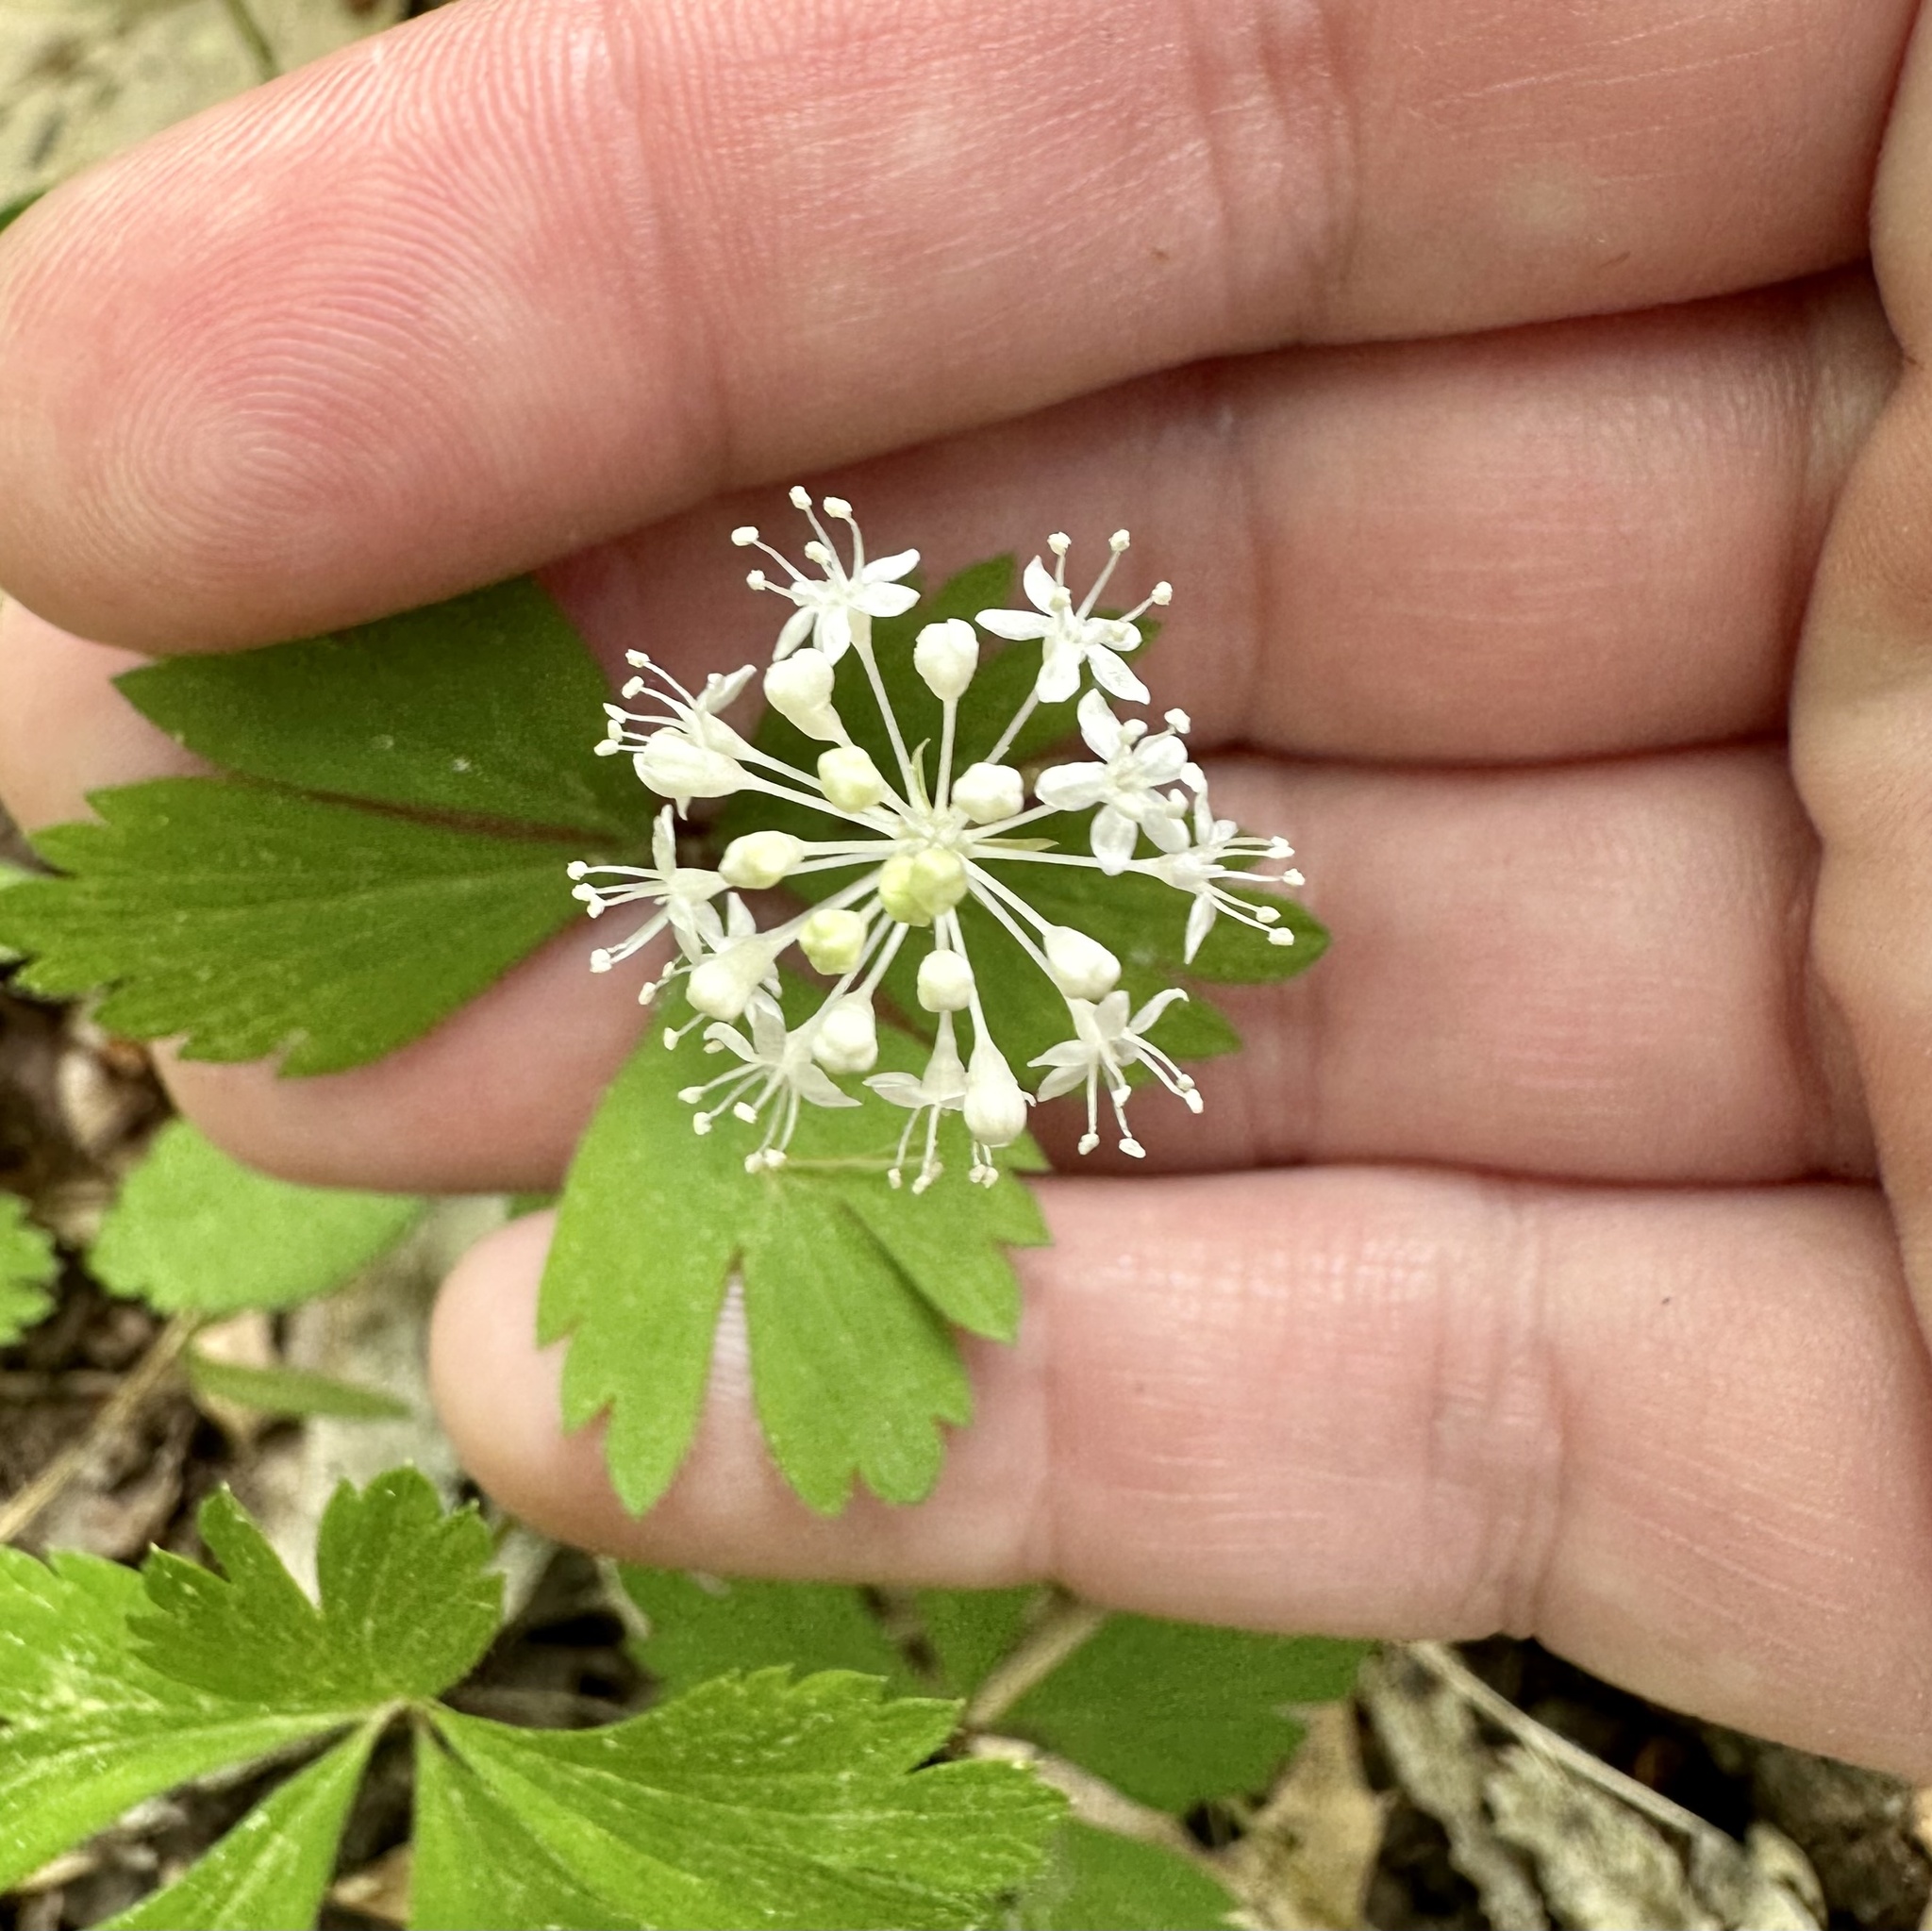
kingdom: Plantae
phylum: Tracheophyta
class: Magnoliopsida
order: Apiales
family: Araliaceae
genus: Panax
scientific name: Panax trifolius
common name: Dwarf ginseng
